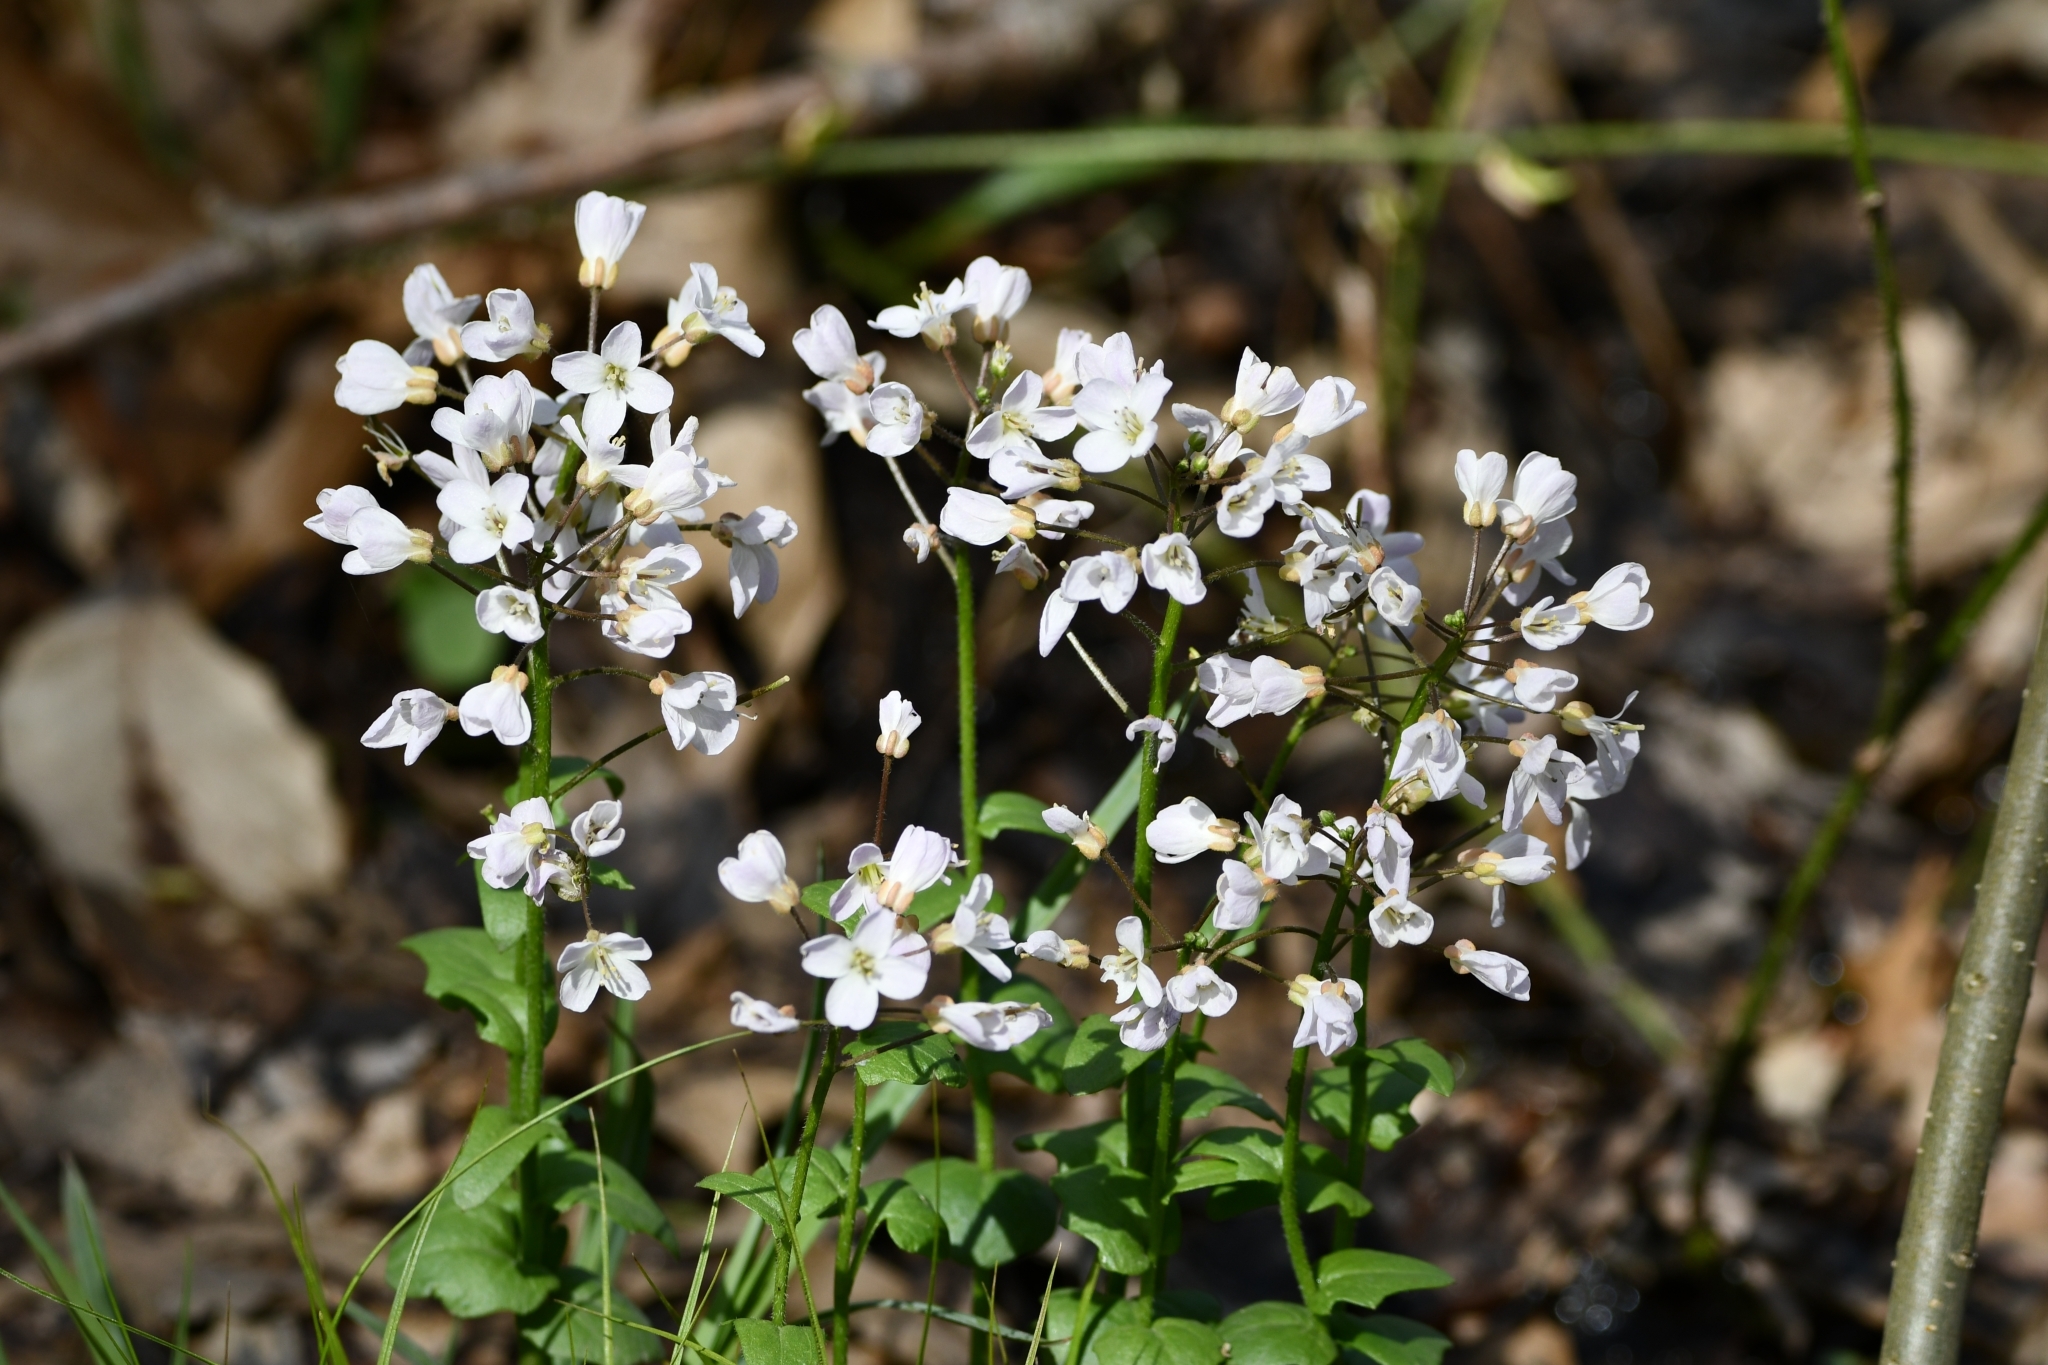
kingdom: Plantae
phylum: Tracheophyta
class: Magnoliopsida
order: Brassicales
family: Brassicaceae
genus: Cardamine
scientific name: Cardamine douglassii
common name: Purple cress
